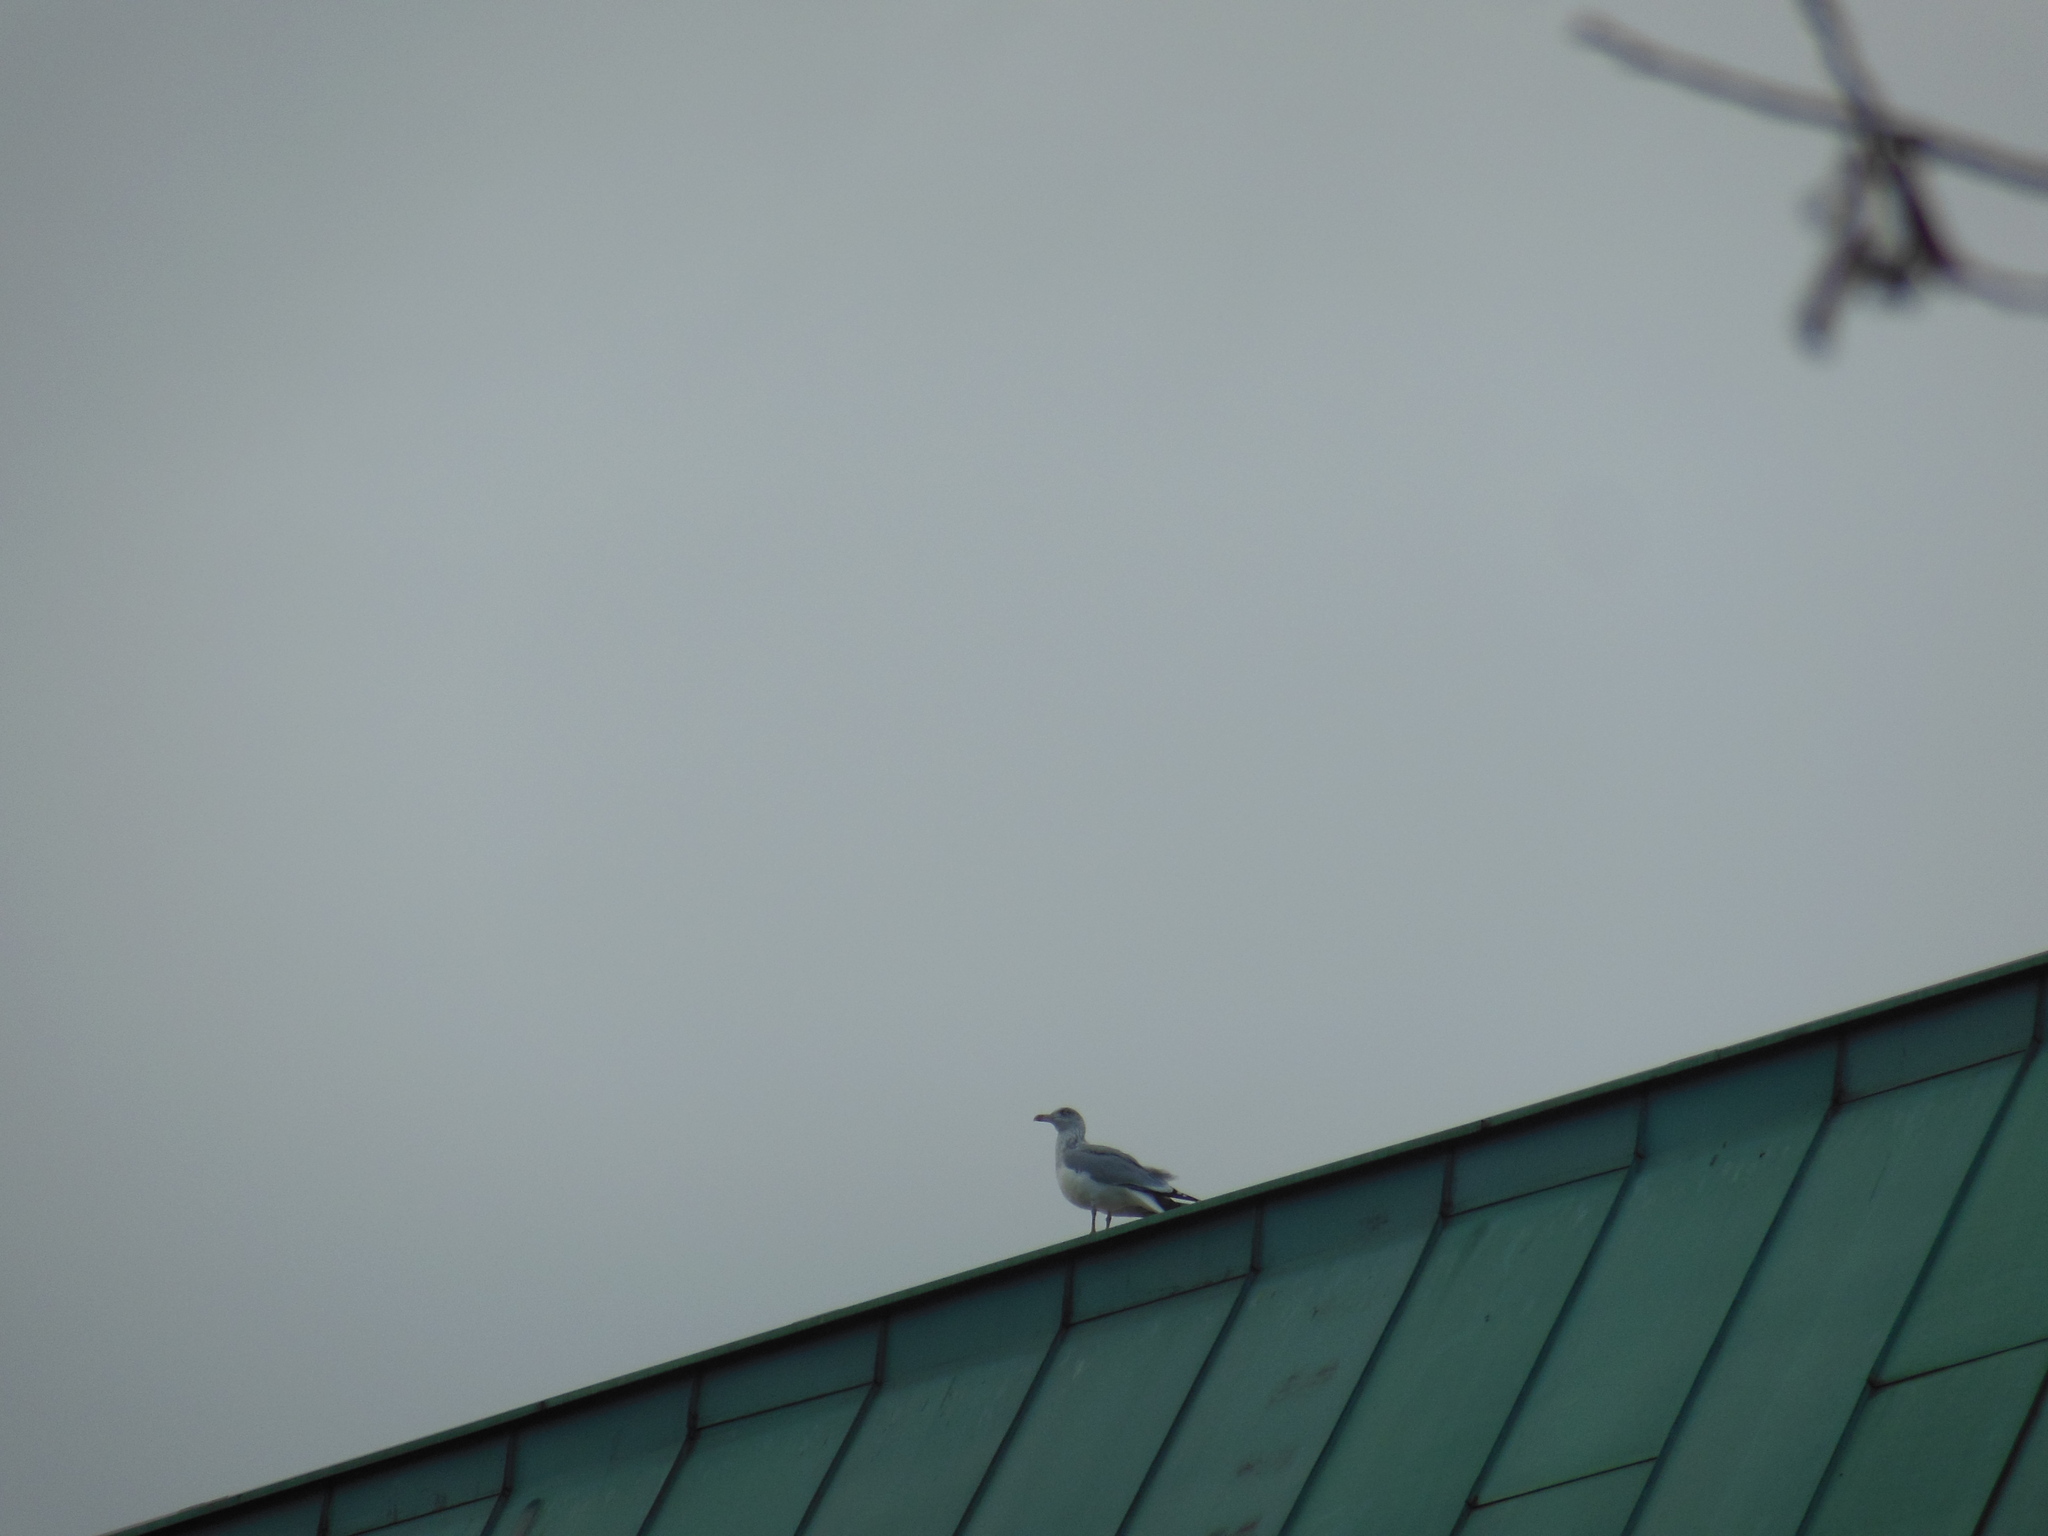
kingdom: Animalia
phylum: Chordata
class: Aves
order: Charadriiformes
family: Laridae
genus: Larus
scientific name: Larus argentatus
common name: Herring gull
